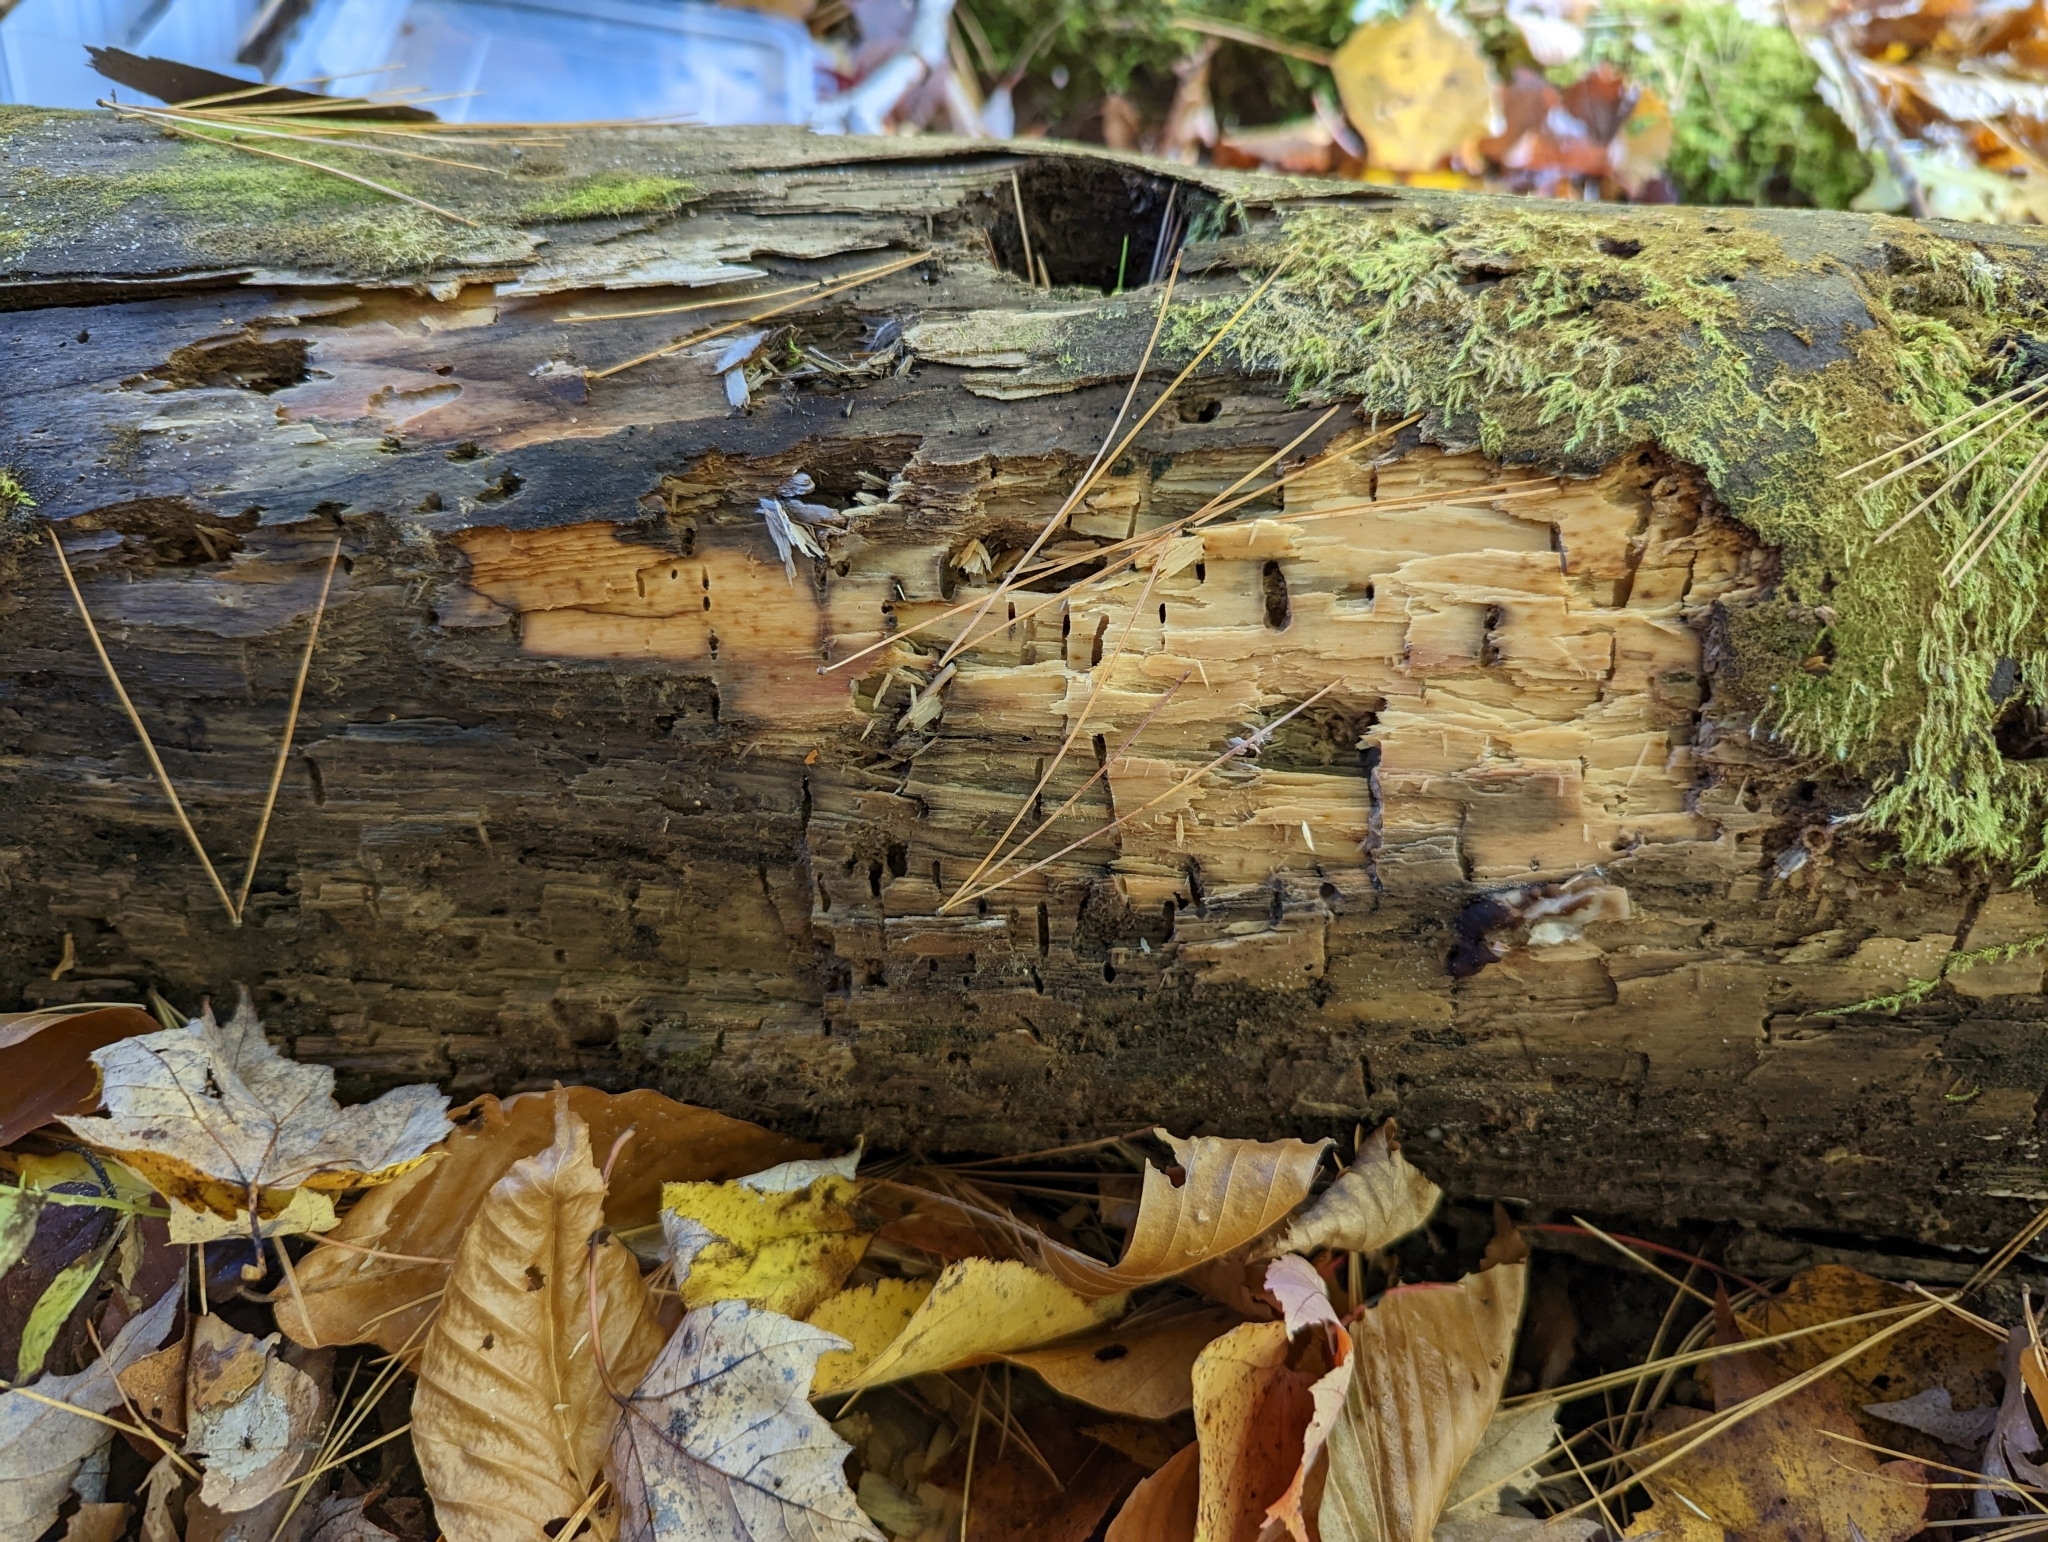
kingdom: Animalia
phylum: Arthropoda
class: Insecta
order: Diptera
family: Axymyiidae
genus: Axymyia
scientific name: Axymyia furcata
